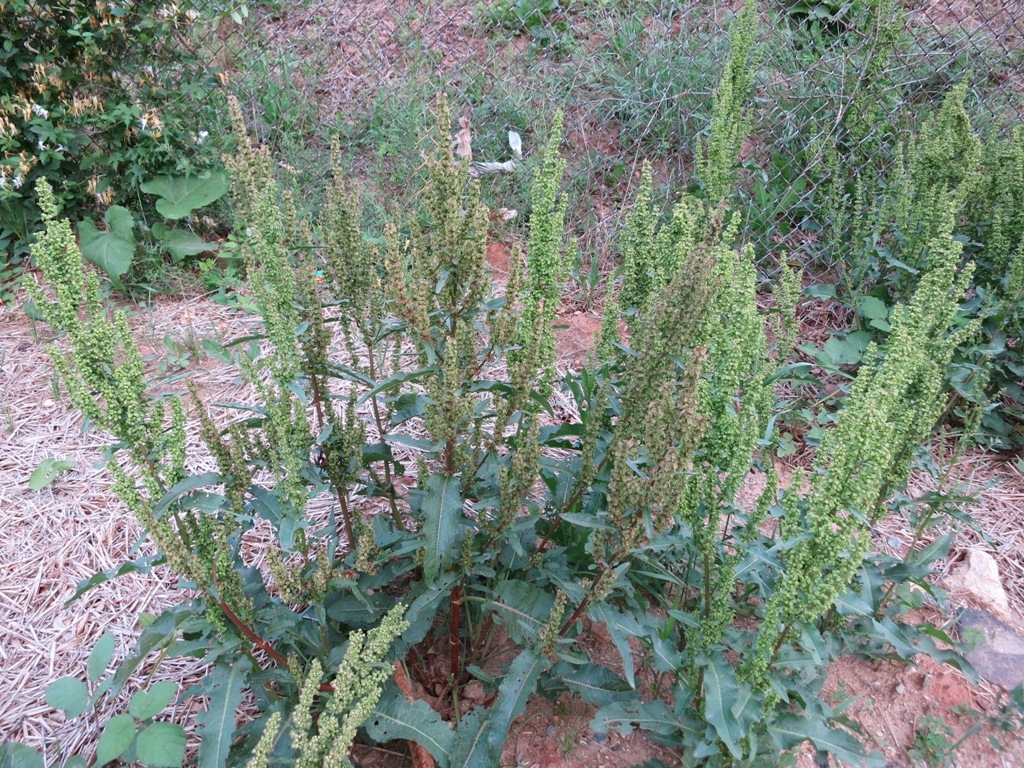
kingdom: Plantae
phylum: Tracheophyta
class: Magnoliopsida
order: Caryophyllales
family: Polygonaceae
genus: Rumex
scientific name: Rumex crispus
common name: Curled dock
